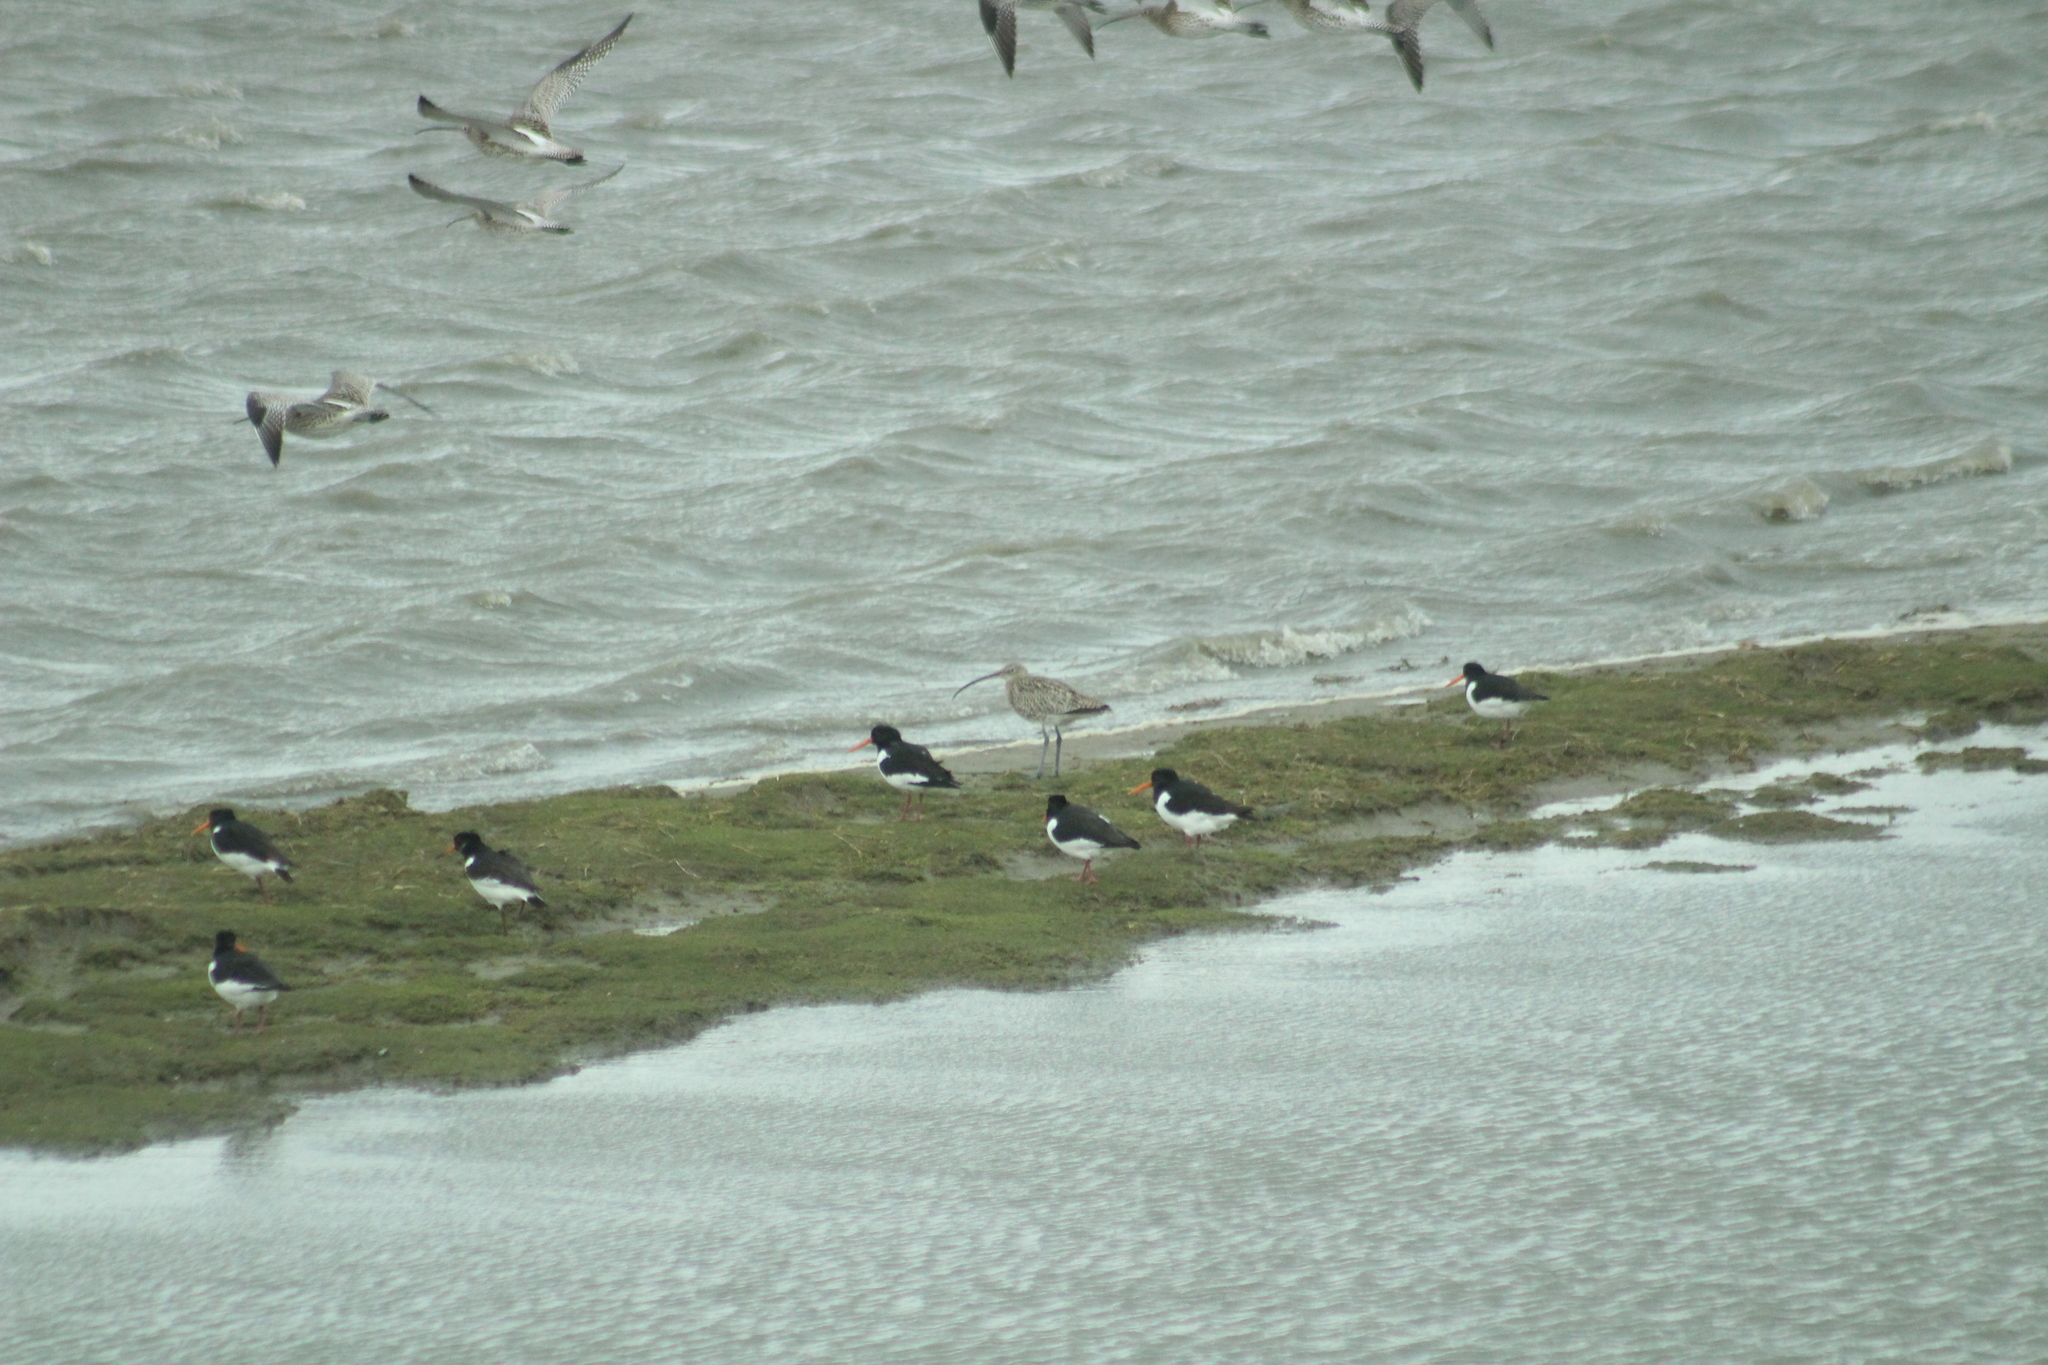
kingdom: Animalia
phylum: Chordata
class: Aves
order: Charadriiformes
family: Scolopacidae
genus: Numenius
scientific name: Numenius arquata
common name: Eurasian curlew
